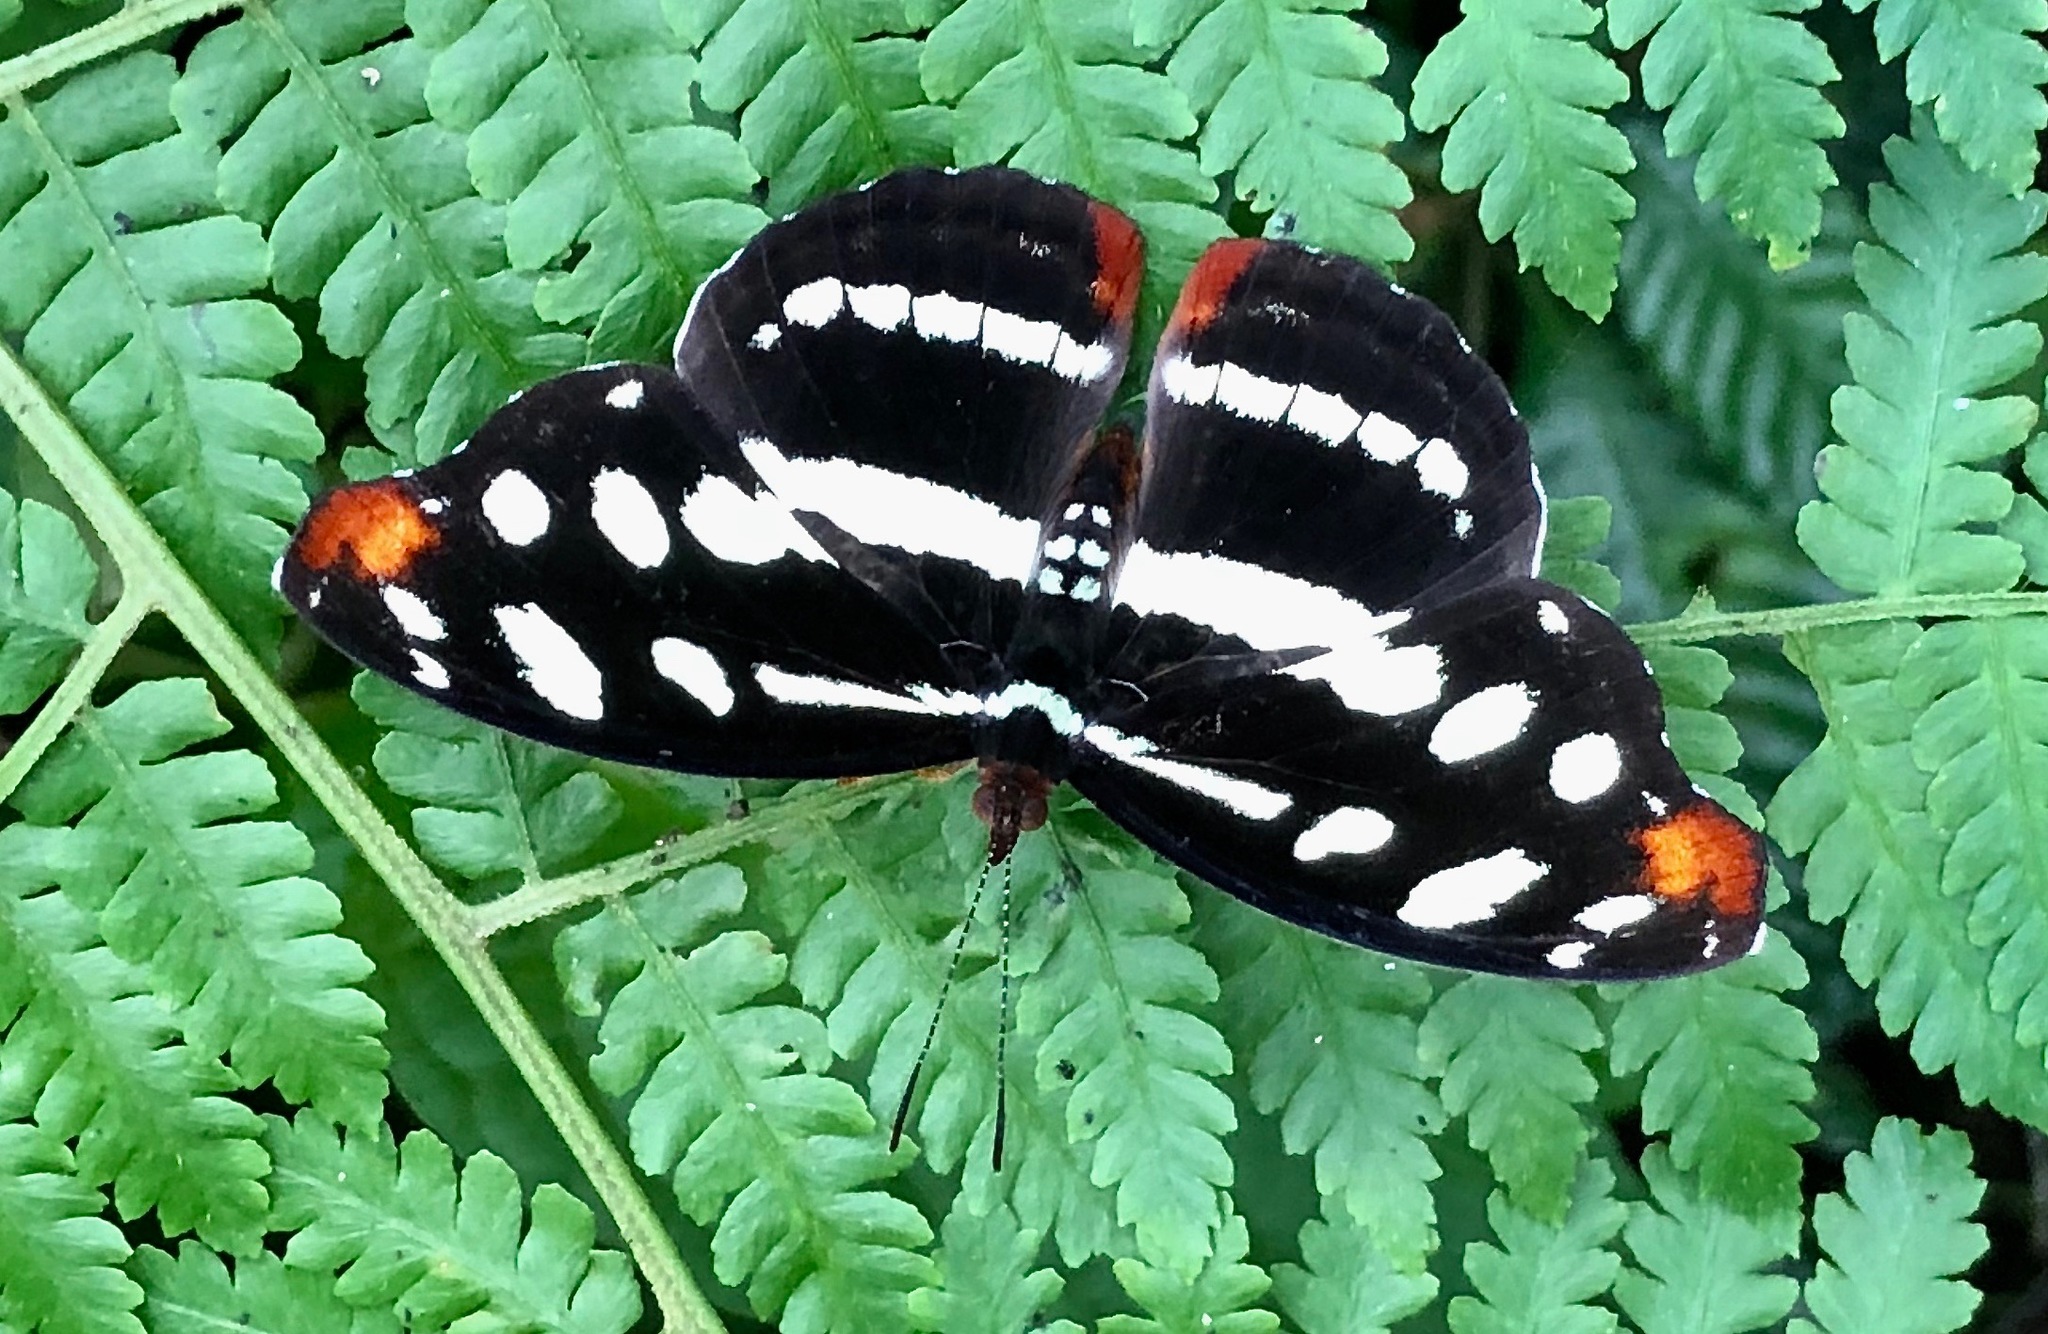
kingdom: Animalia
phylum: Arthropoda
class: Insecta
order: Lepidoptera
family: Nymphalidae
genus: Catonephele
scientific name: Catonephele mexicana
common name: Guatemalan catone
